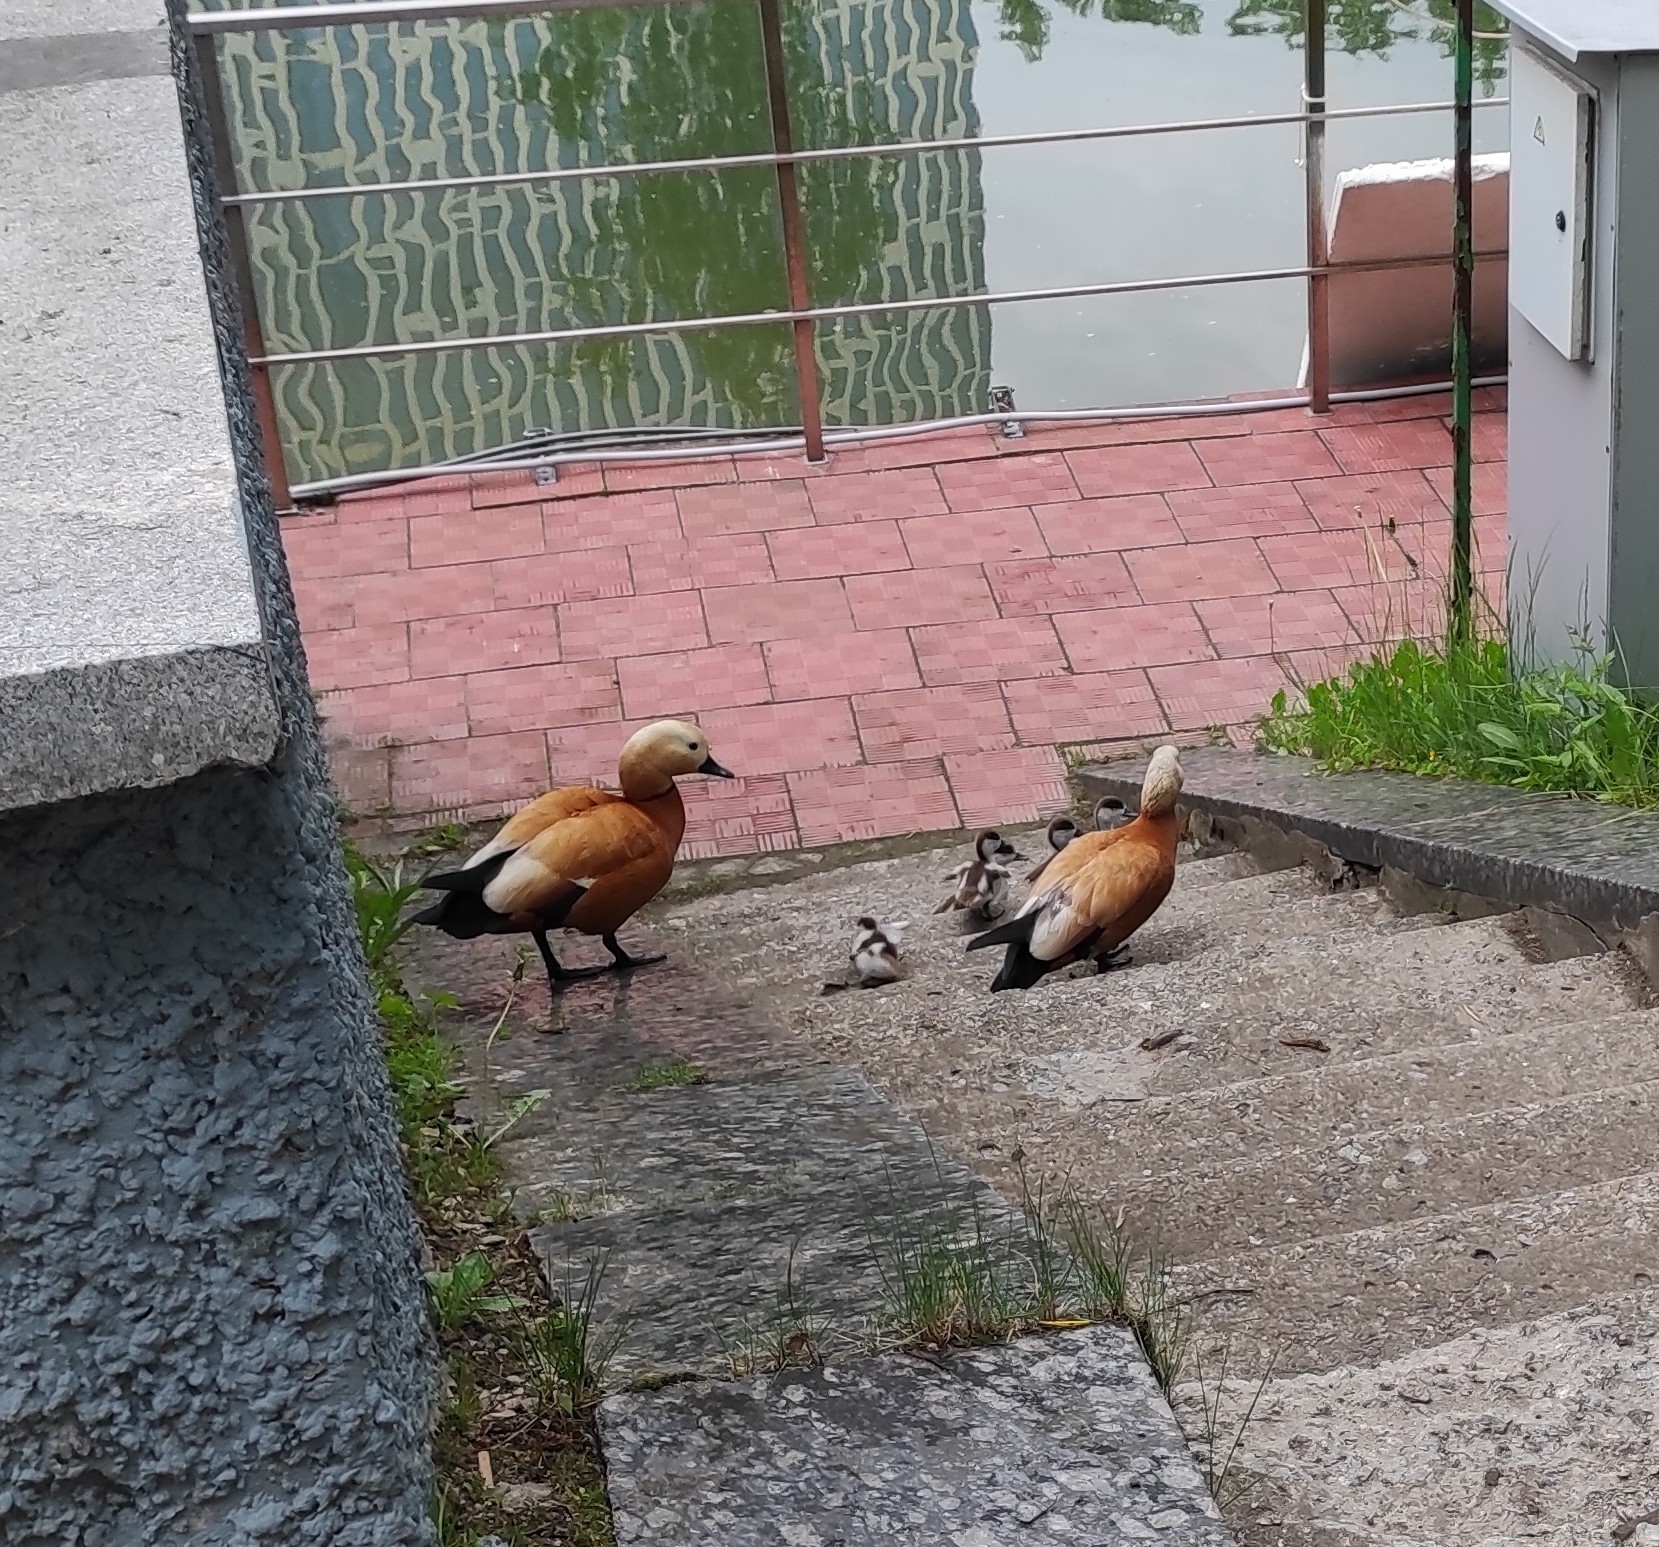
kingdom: Animalia
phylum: Chordata
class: Aves
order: Anseriformes
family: Anatidae
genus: Tadorna
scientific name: Tadorna ferruginea
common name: Ruddy shelduck
